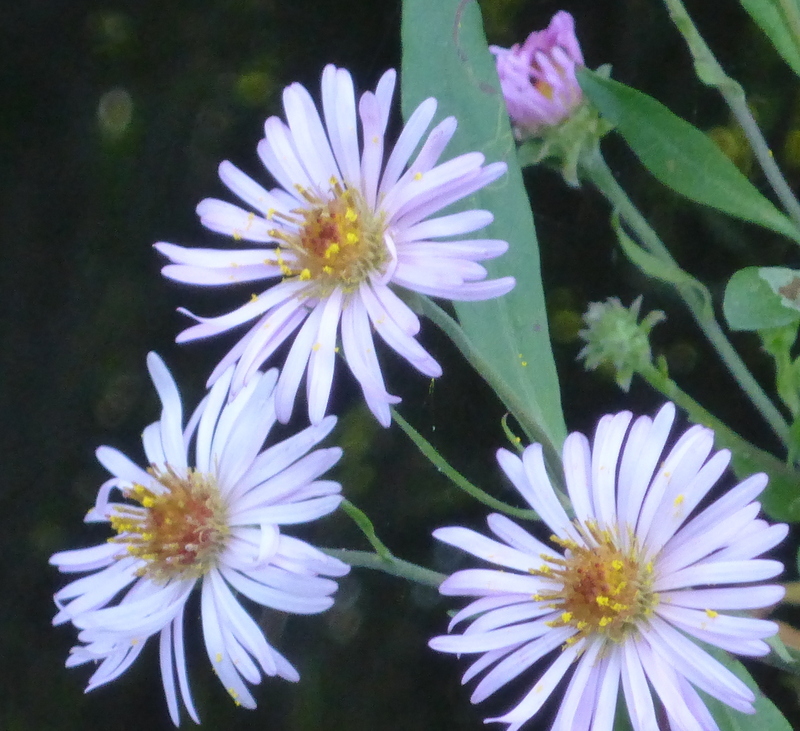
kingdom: Plantae
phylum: Tracheophyta
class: Magnoliopsida
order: Asterales
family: Asteraceae
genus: Ampelaster
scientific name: Ampelaster carolinianus
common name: Climbing aster
